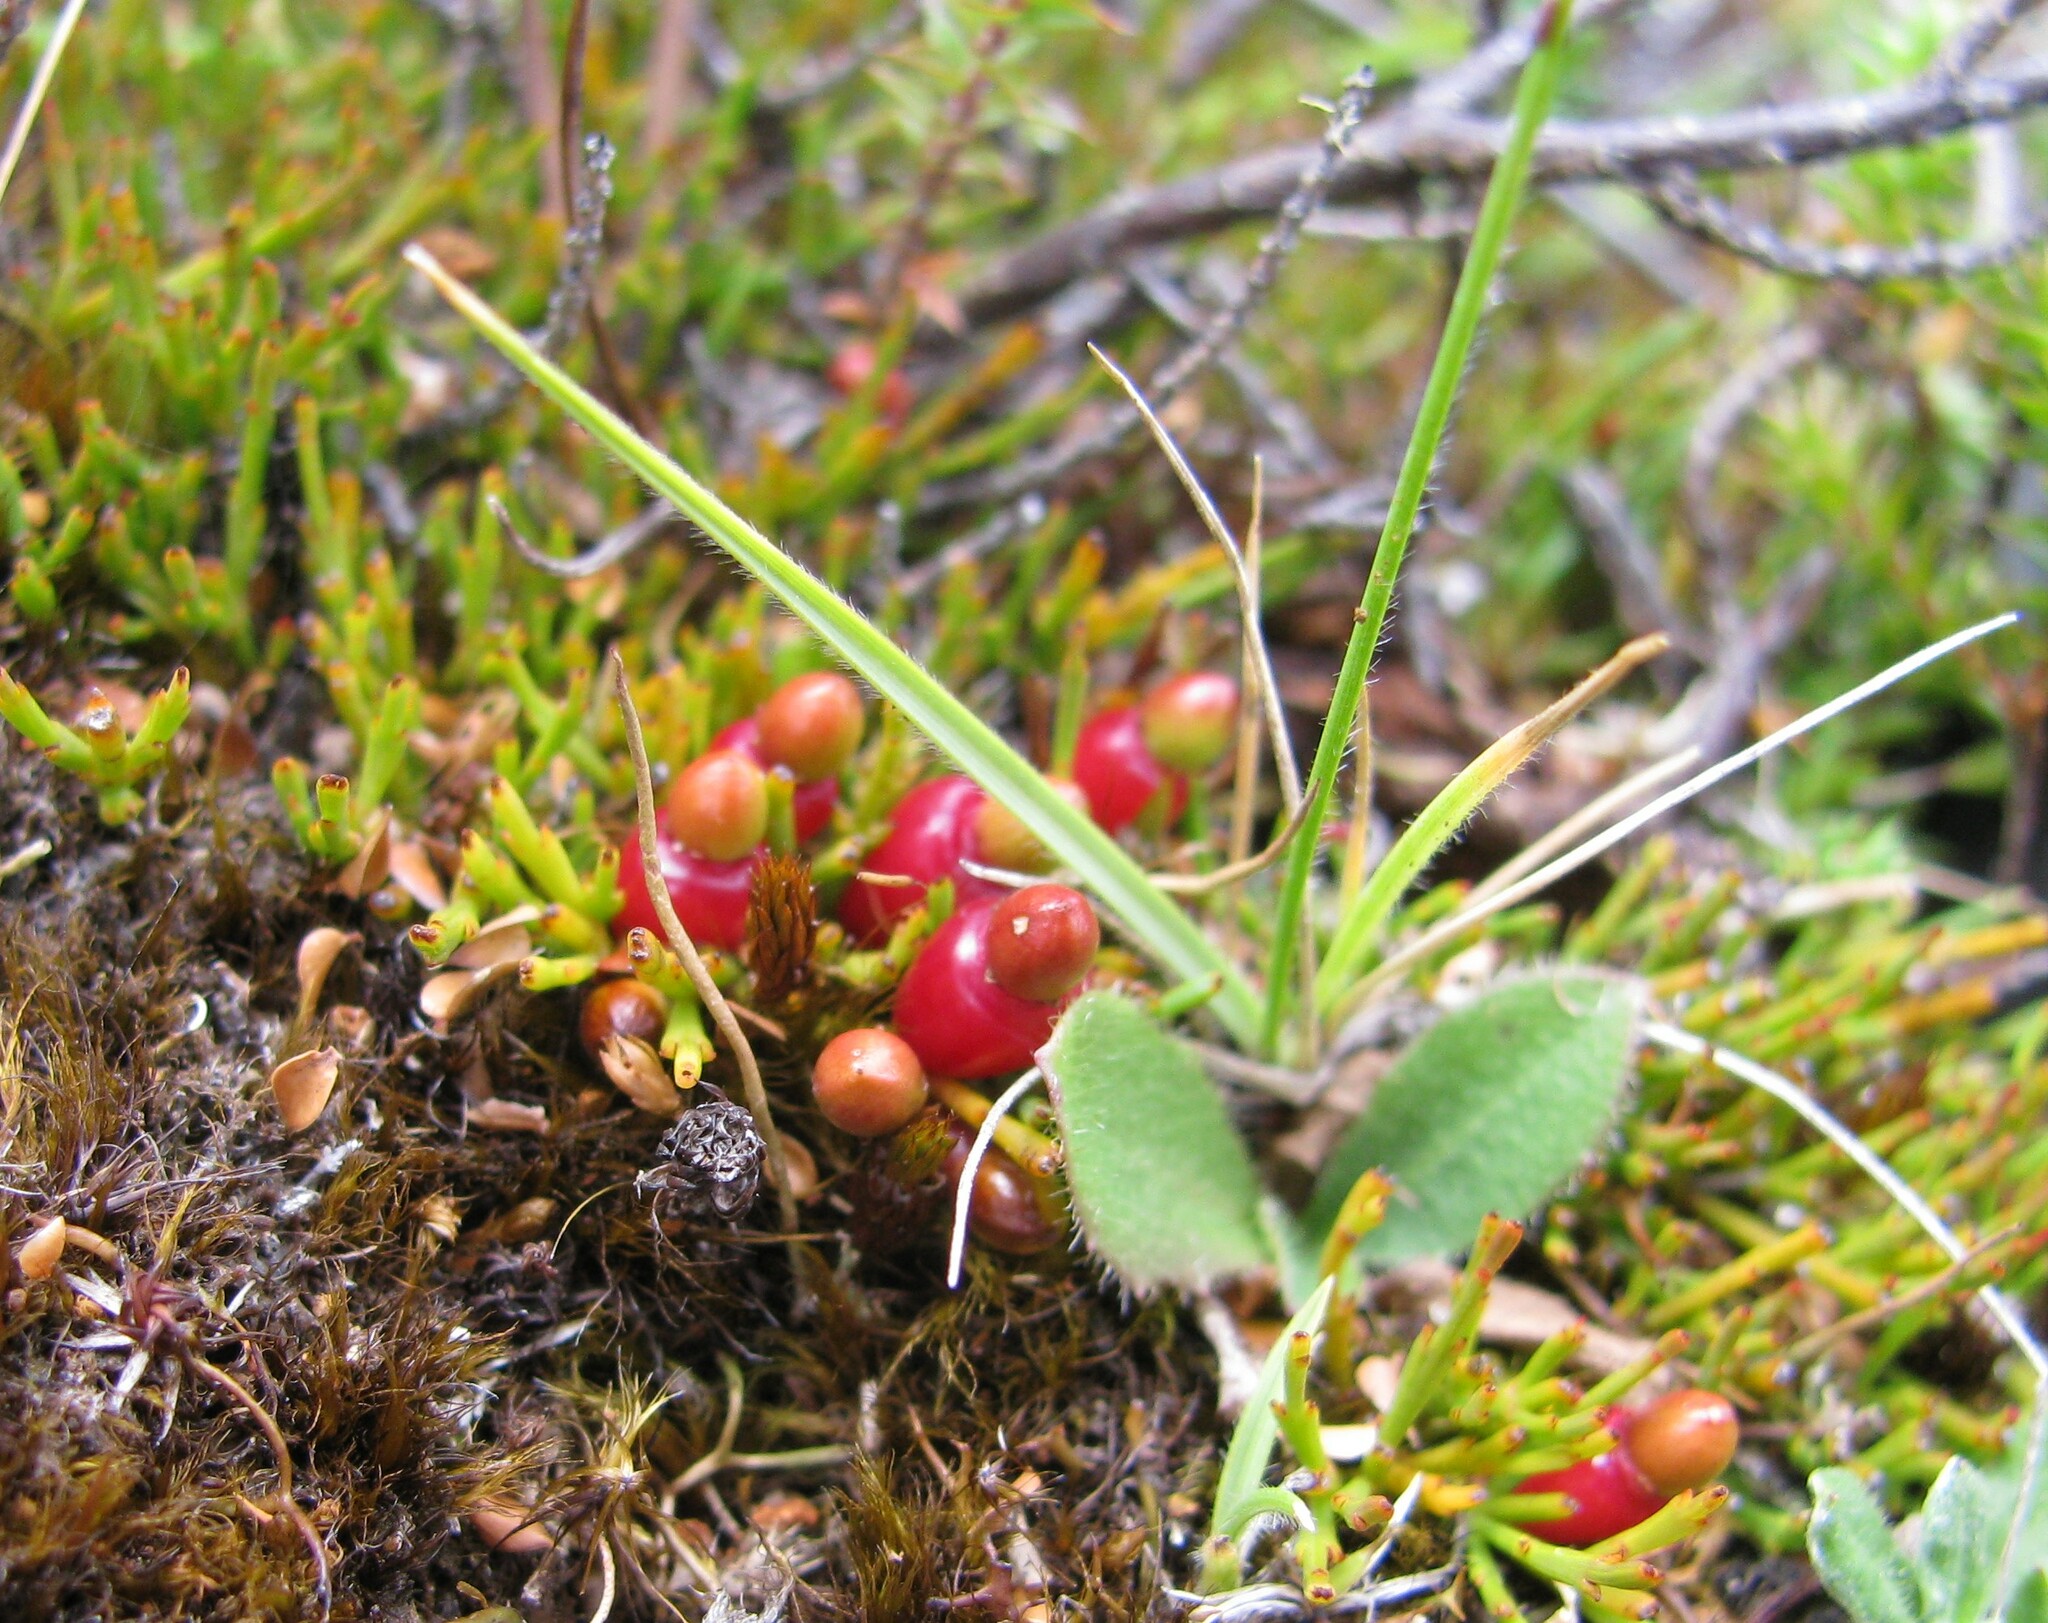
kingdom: Plantae
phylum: Tracheophyta
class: Magnoliopsida
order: Santalales
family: Santalaceae
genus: Exocarpos
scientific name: Exocarpos nanus
